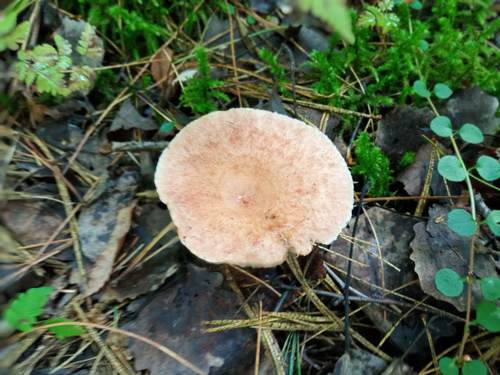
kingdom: Fungi
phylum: Basidiomycota
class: Agaricomycetes
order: Russulales
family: Russulaceae
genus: Lactarius
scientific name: Lactarius torminosus
